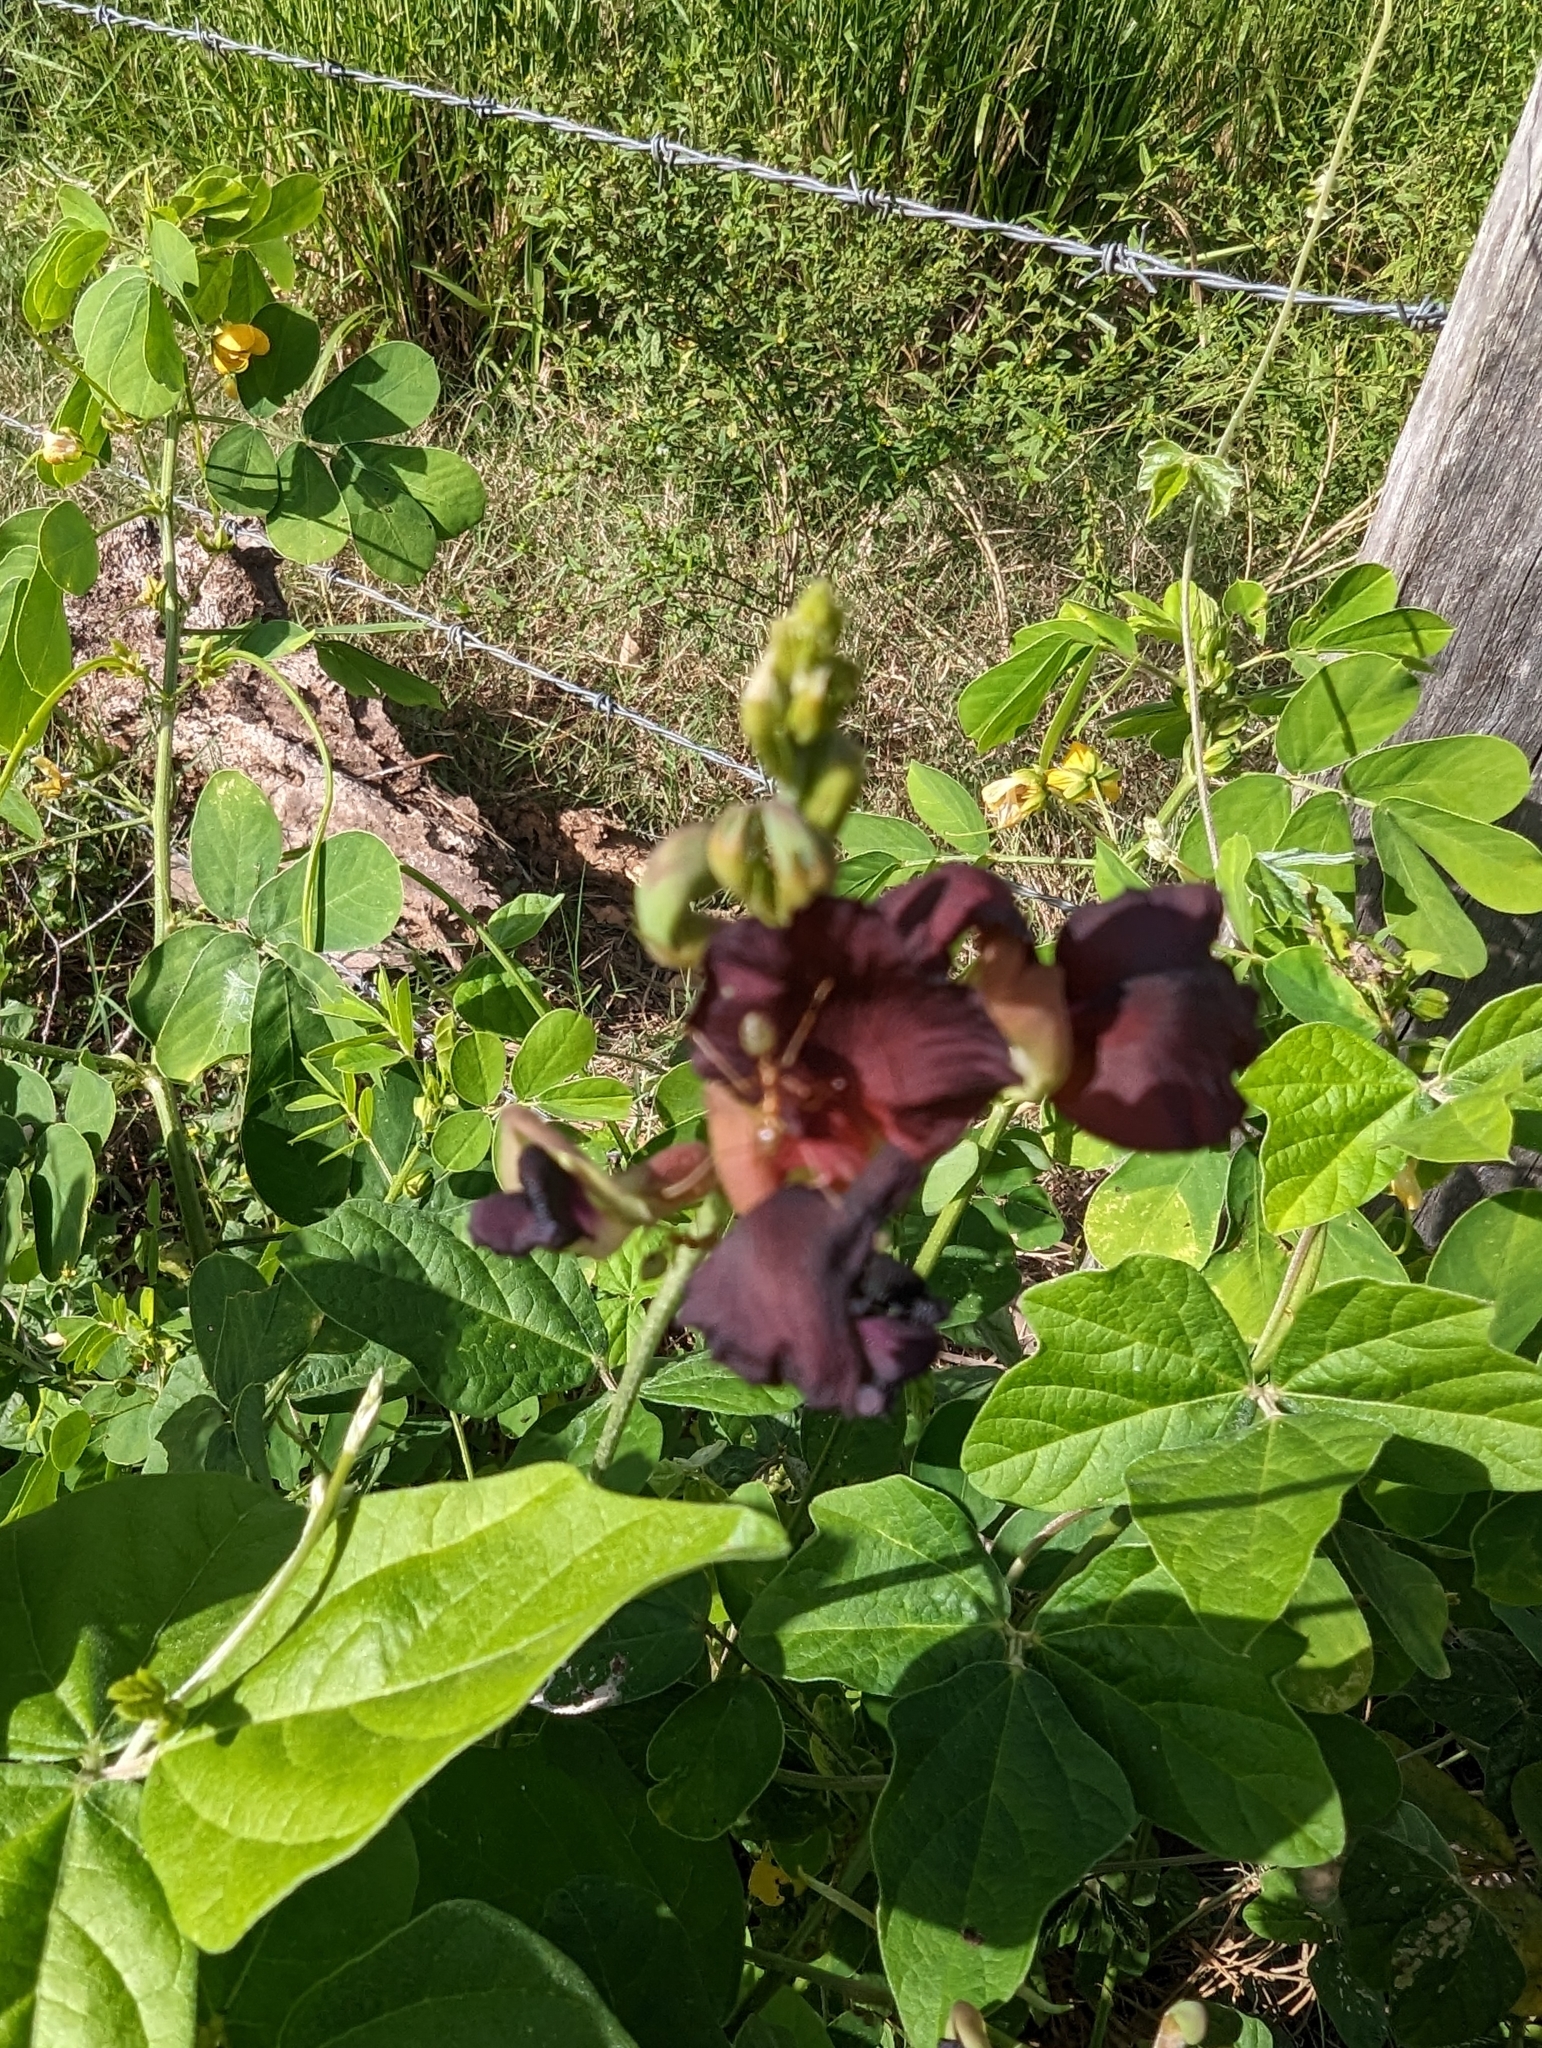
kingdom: Plantae
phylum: Tracheophyta
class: Magnoliopsida
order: Fabales
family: Fabaceae
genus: Macroptilium
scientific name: Macroptilium atropurpureum
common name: Purple bushbean
